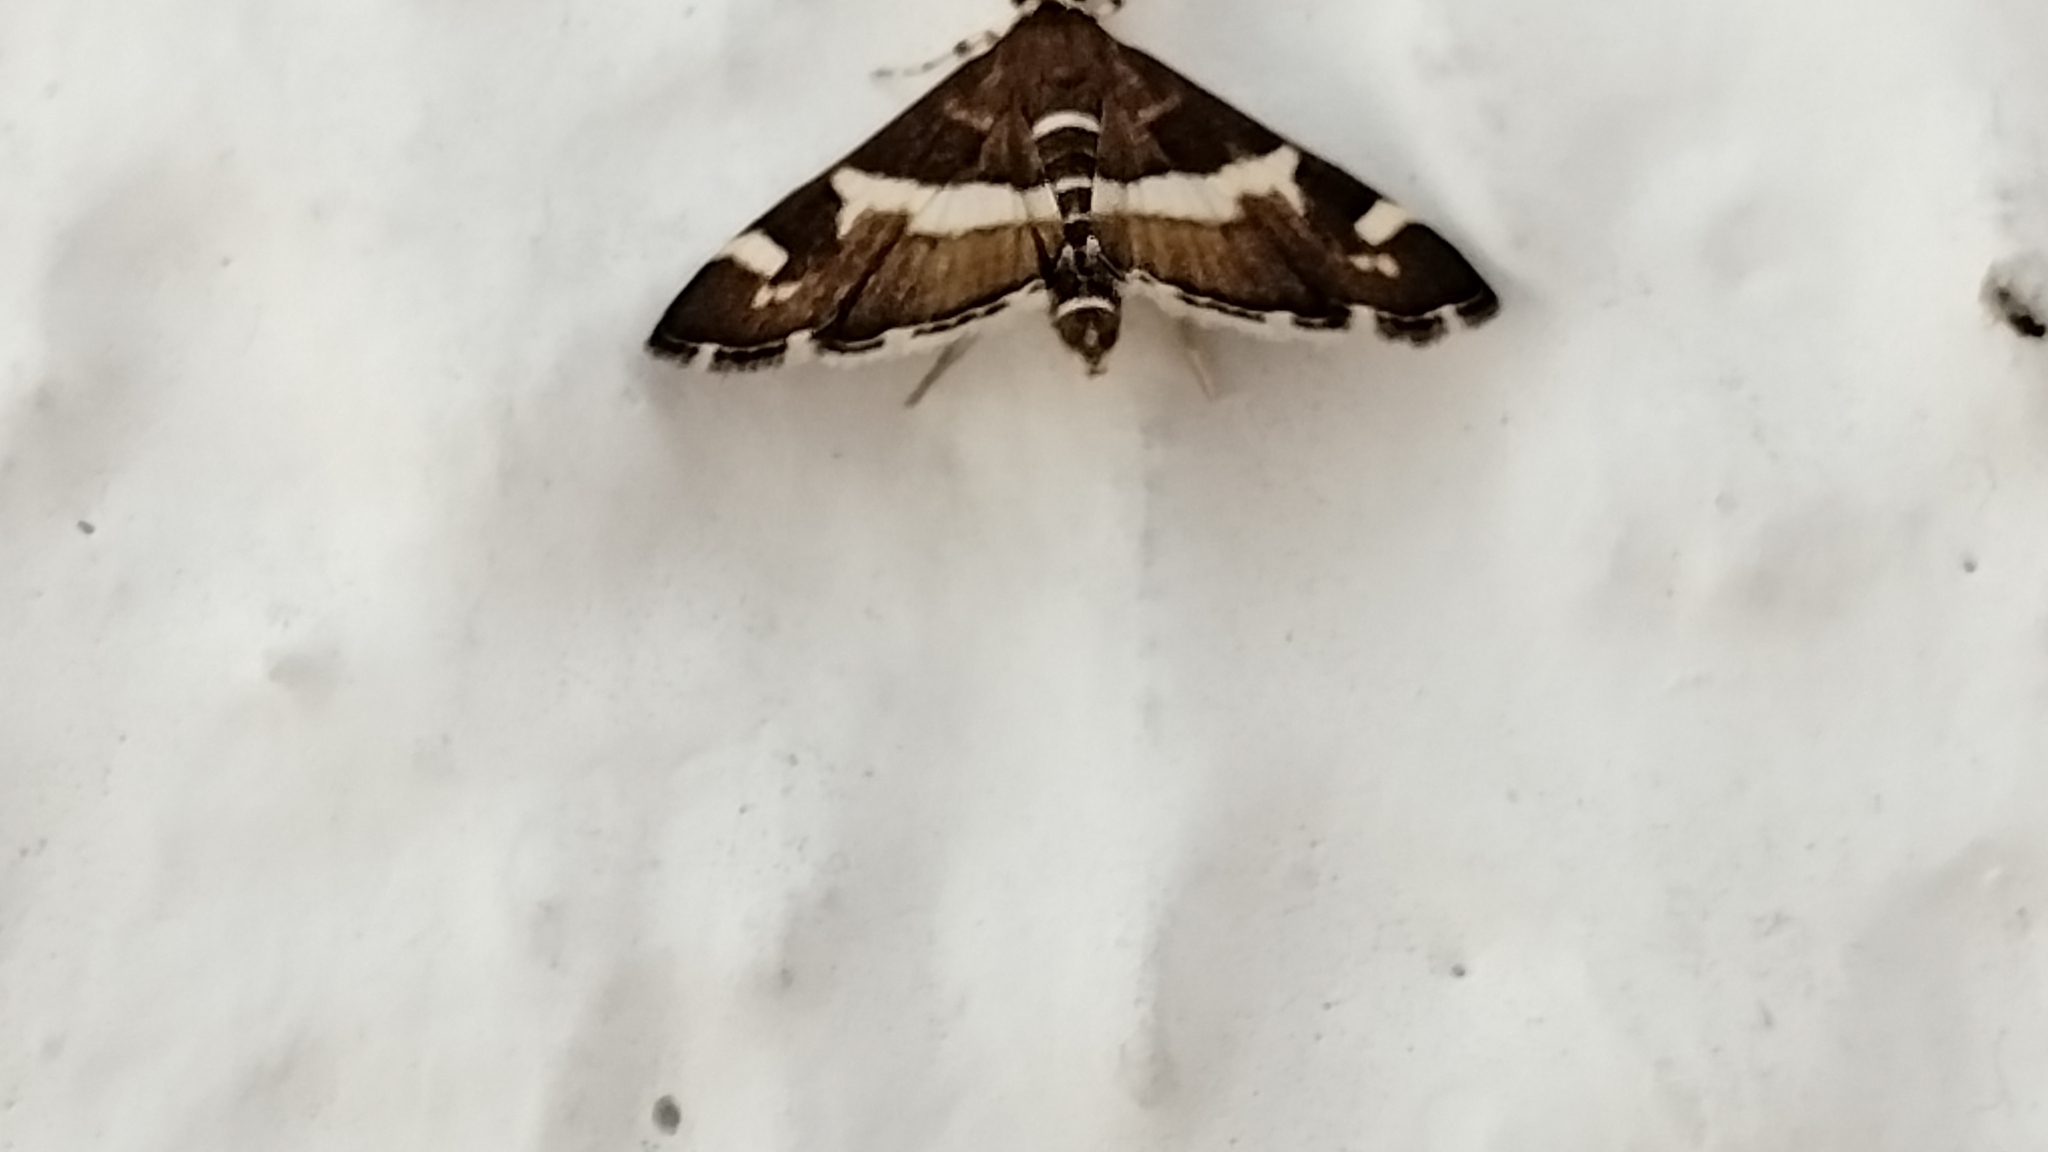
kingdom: Animalia
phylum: Arthropoda
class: Insecta
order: Lepidoptera
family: Crambidae
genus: Spoladea
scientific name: Spoladea recurvalis
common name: Beet webworm moth
